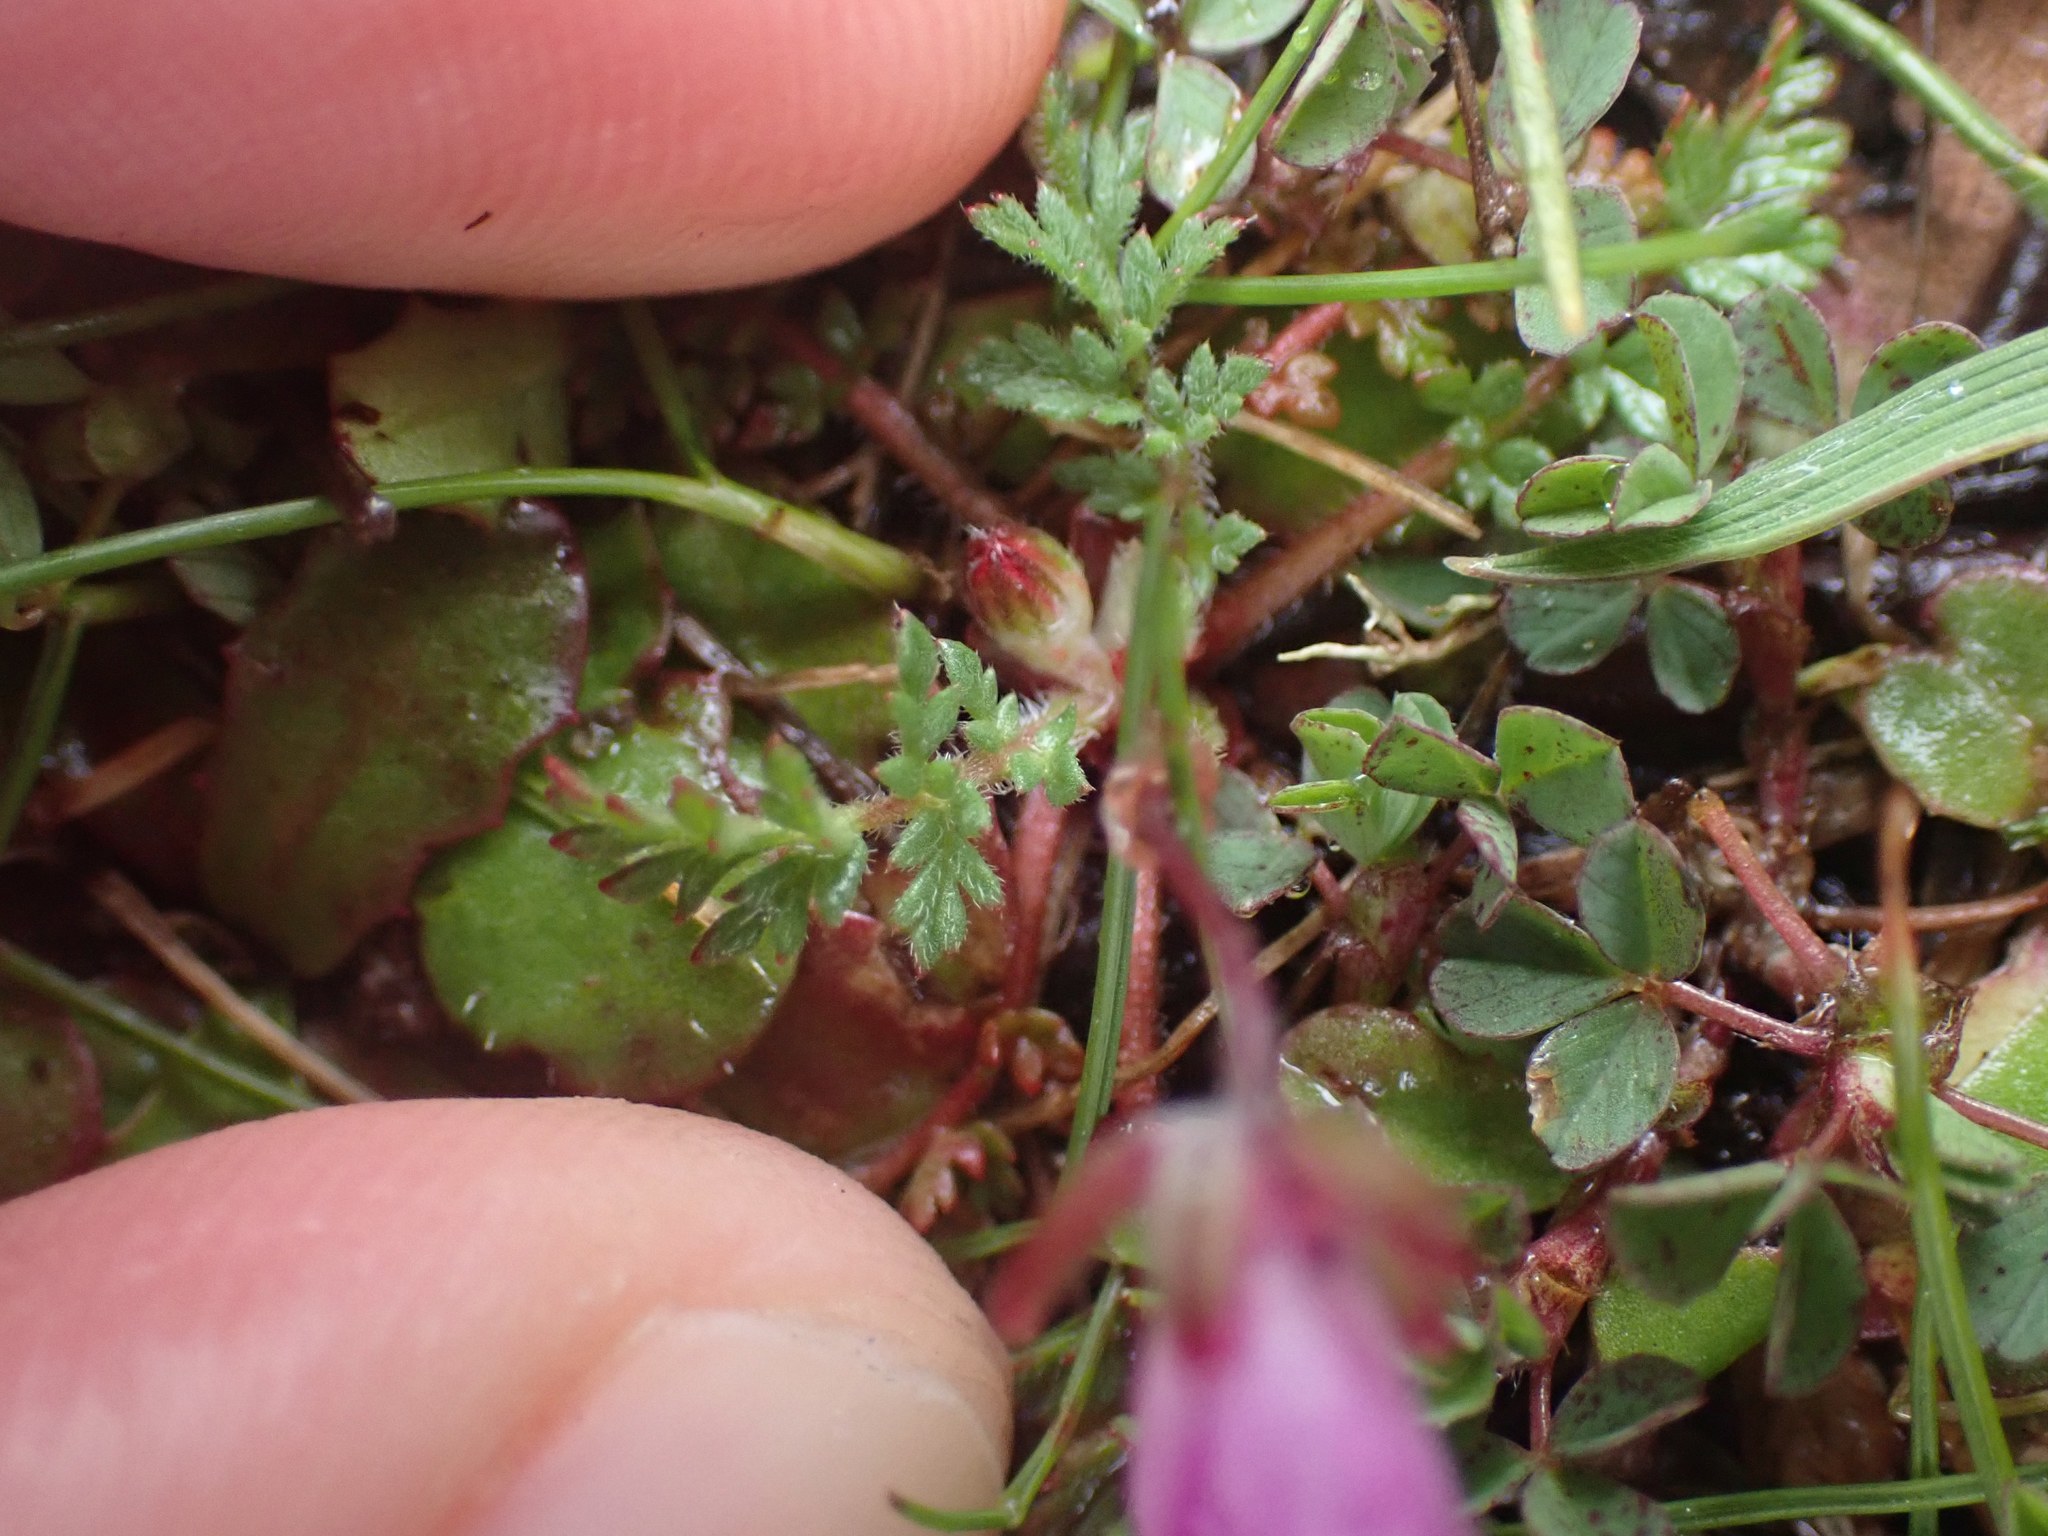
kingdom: Plantae
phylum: Tracheophyta
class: Magnoliopsida
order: Geraniales
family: Geraniaceae
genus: Erodium
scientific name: Erodium cicutarium
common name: Common stork's-bill
